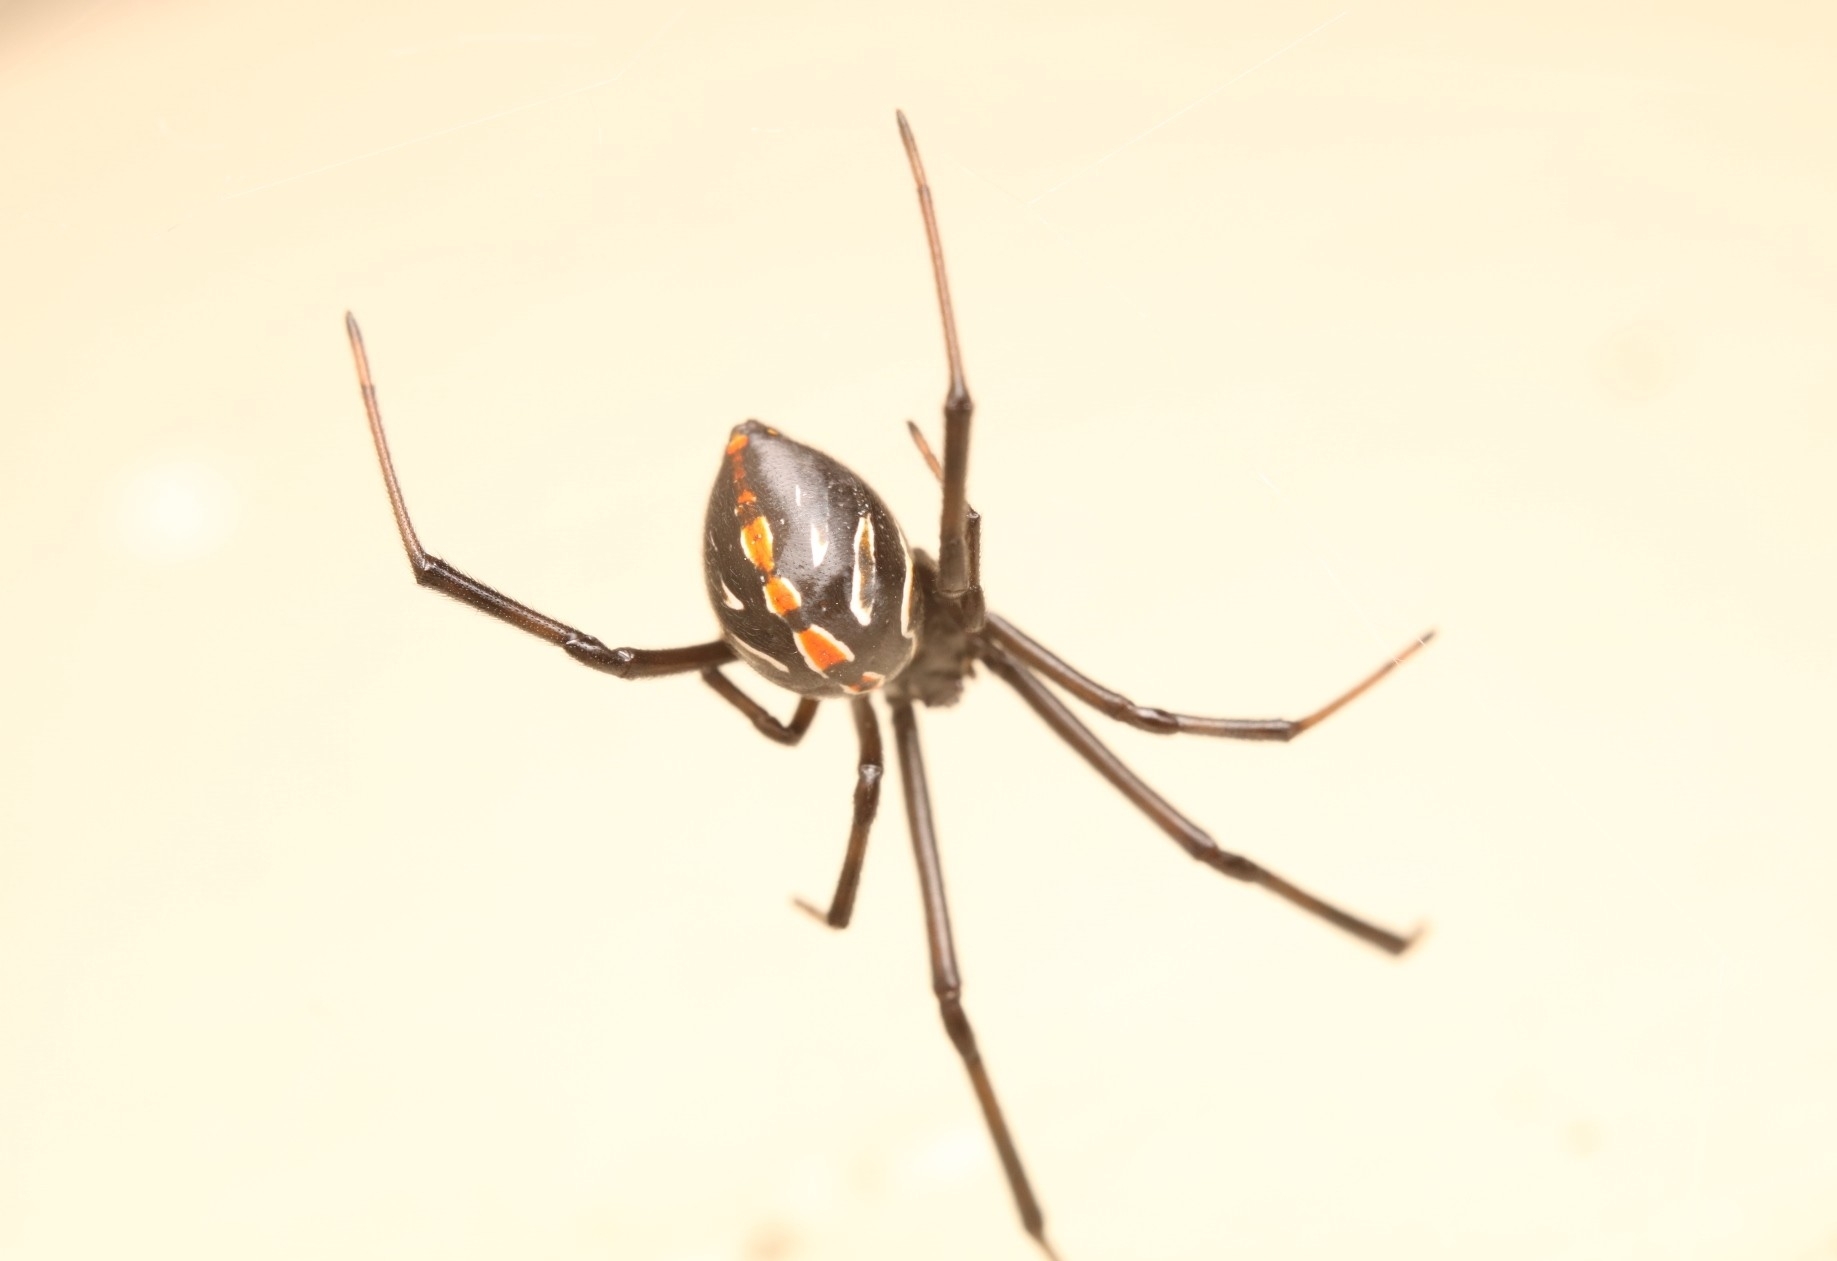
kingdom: Animalia
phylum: Arthropoda
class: Arachnida
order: Araneae
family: Theridiidae
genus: Latrodectus
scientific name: Latrodectus hesperus
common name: Western black widow
